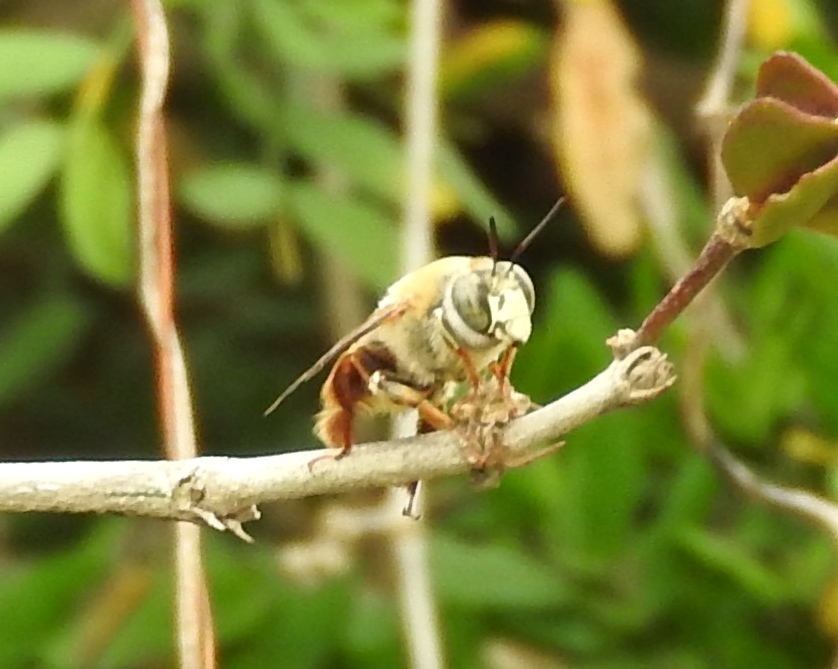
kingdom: Animalia
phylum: Arthropoda
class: Insecta
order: Hymenoptera
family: Apidae
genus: Centris
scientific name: Centris
